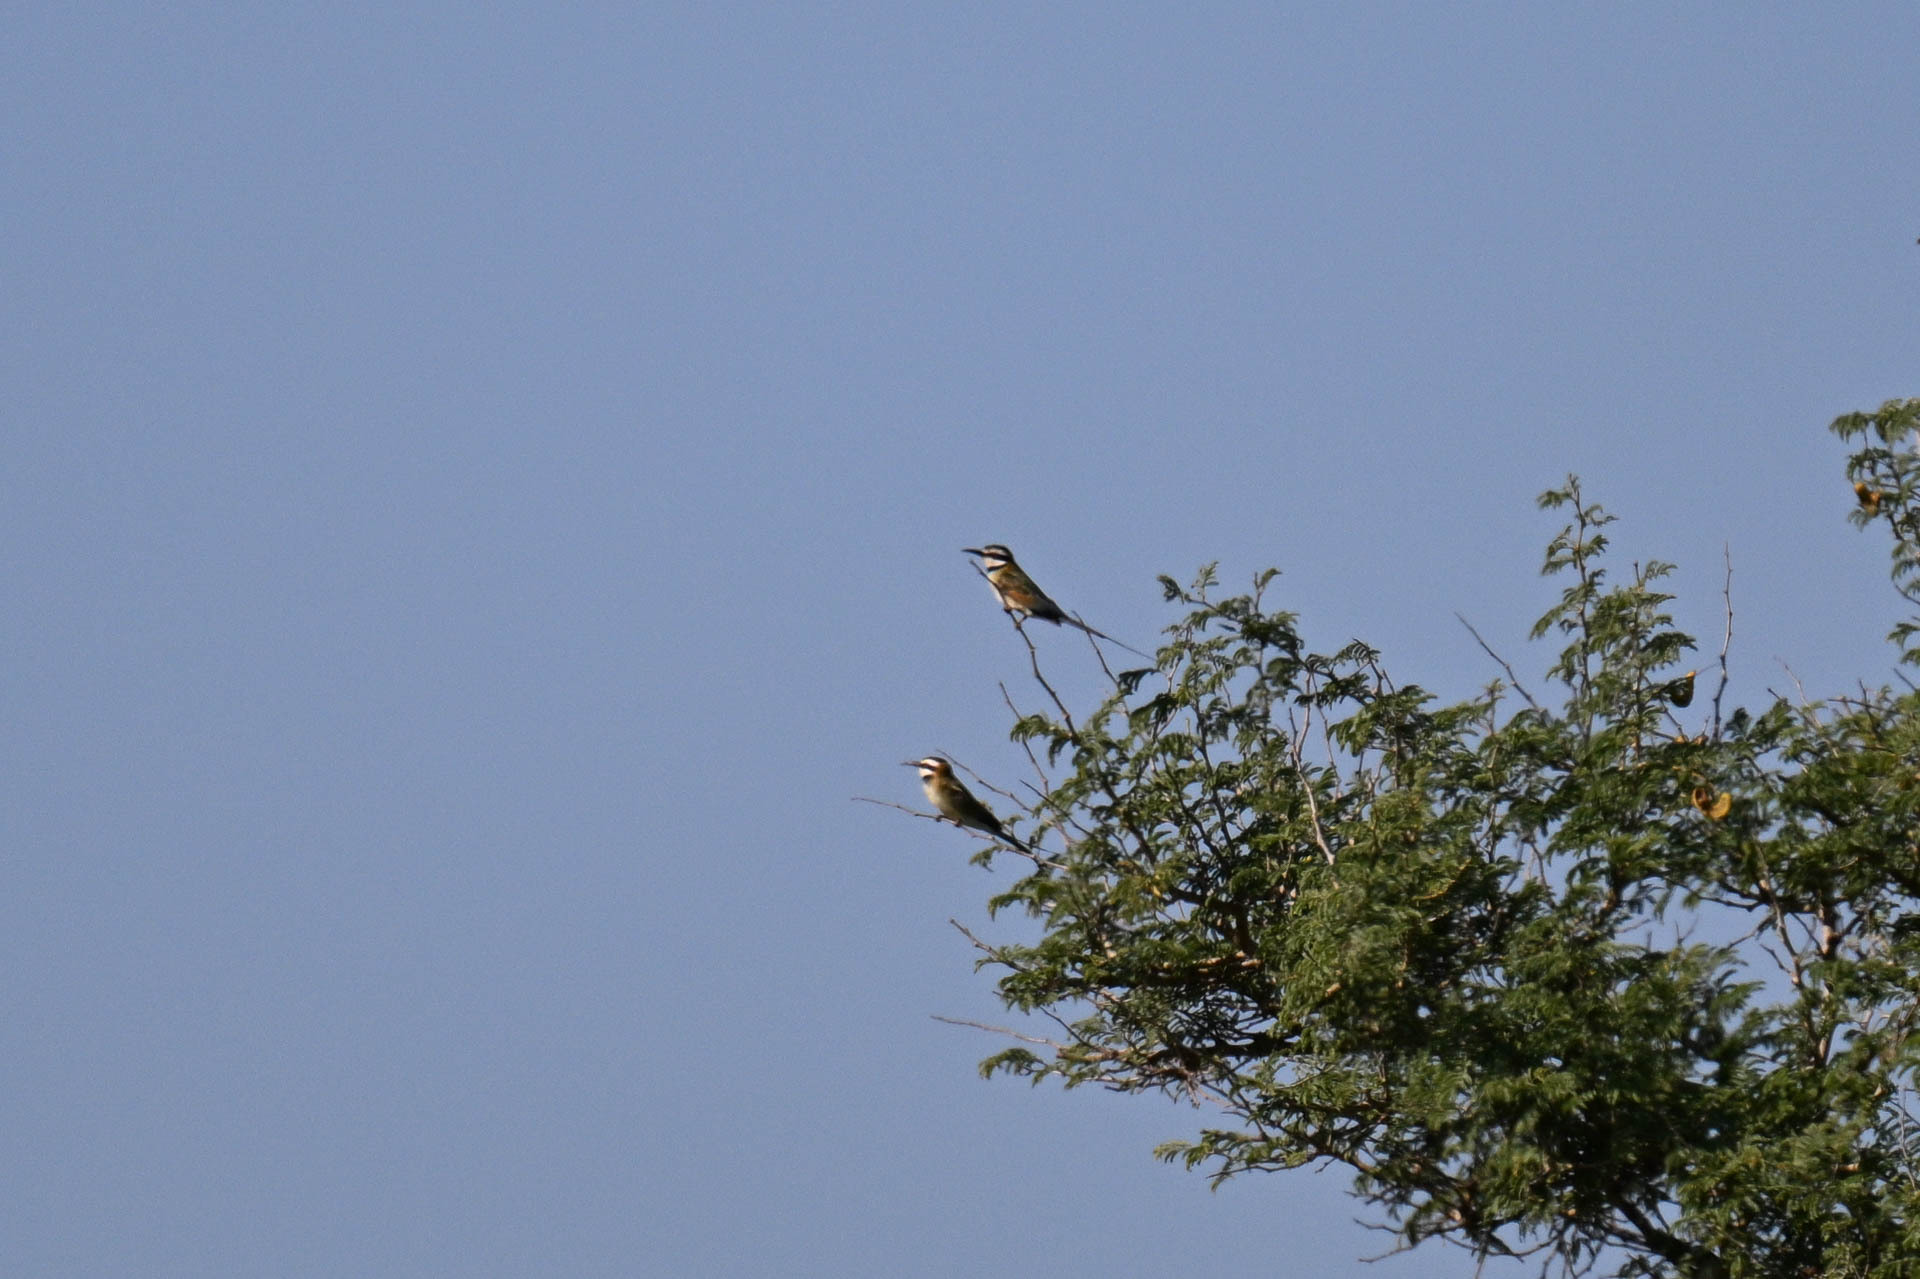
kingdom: Animalia
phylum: Chordata
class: Aves
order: Coraciiformes
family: Meropidae
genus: Merops
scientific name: Merops albicollis
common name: White-throated bee-eater
